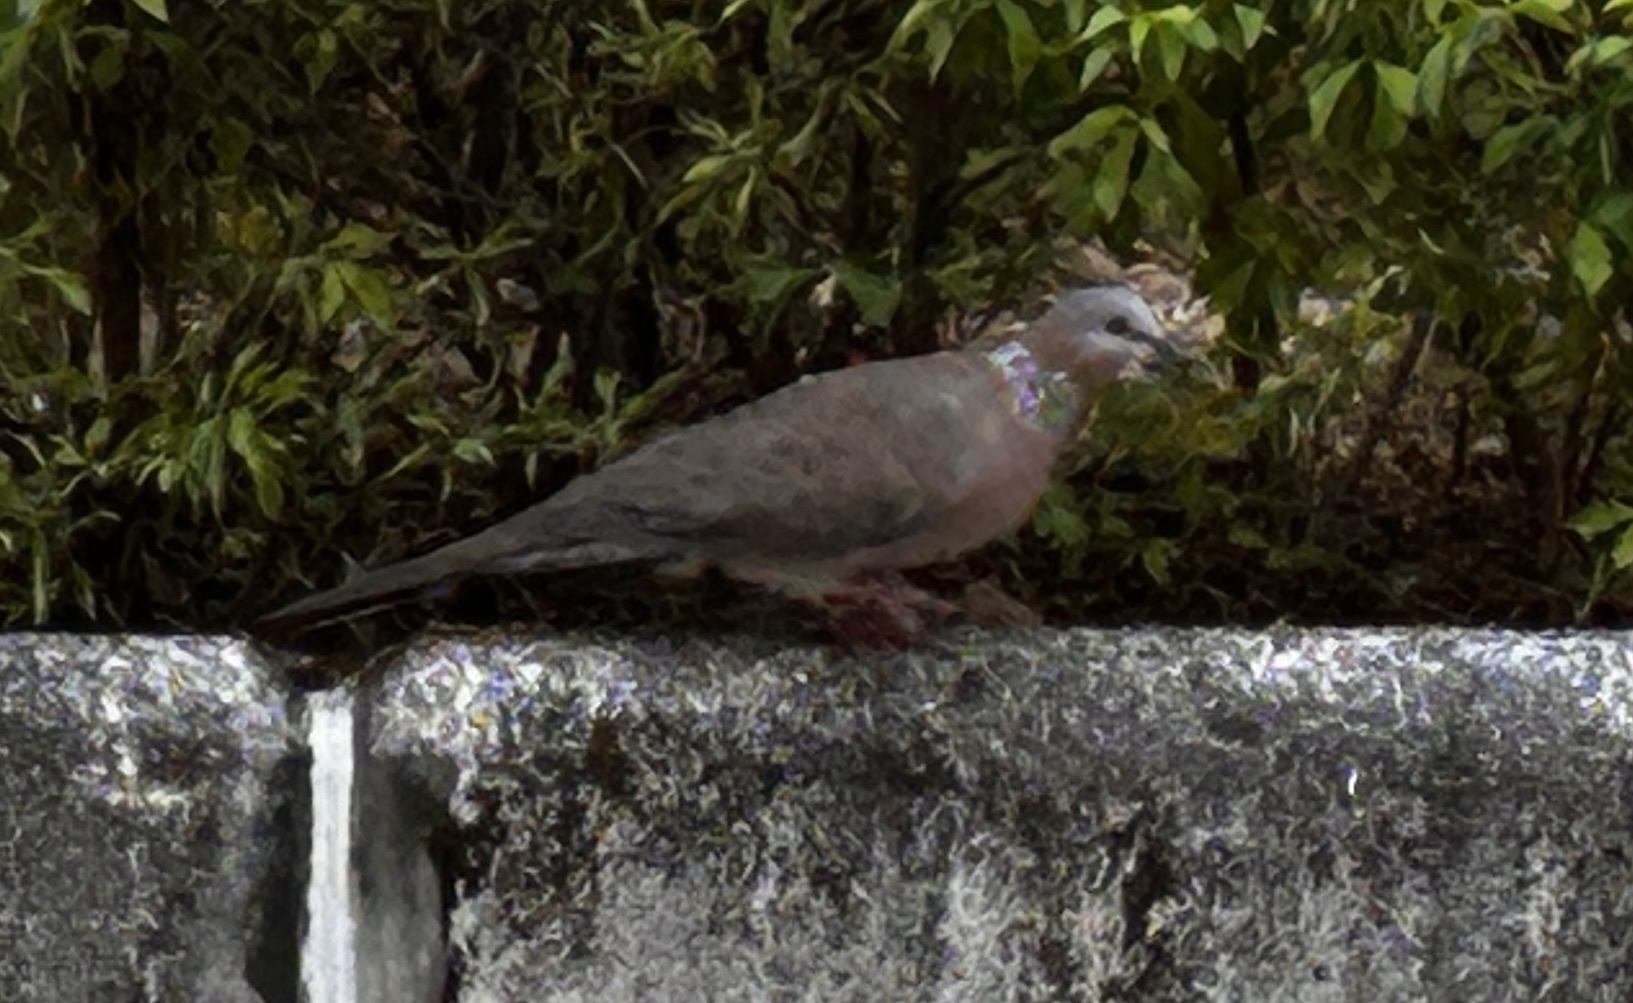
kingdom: Animalia
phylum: Chordata
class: Aves
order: Columbiformes
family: Columbidae
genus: Spilopelia
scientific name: Spilopelia chinensis
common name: Spotted dove
